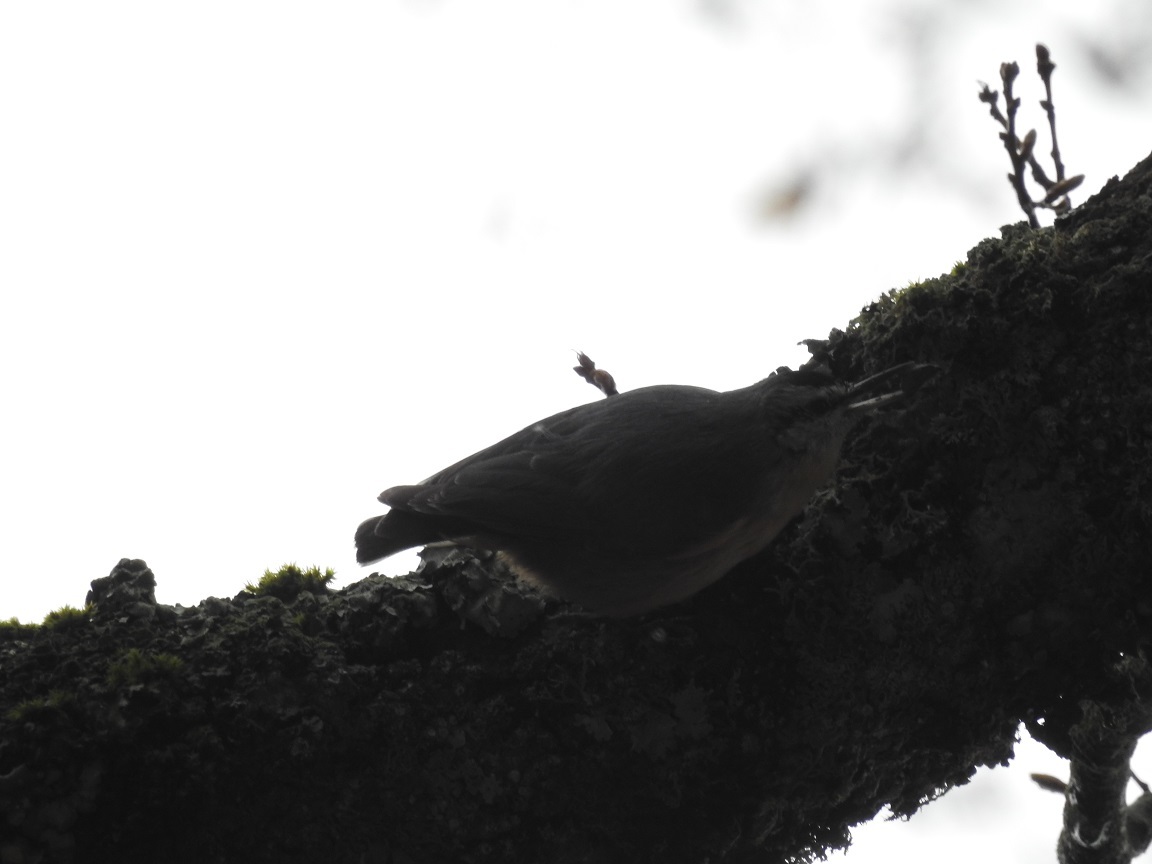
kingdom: Animalia
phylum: Chordata
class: Aves
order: Passeriformes
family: Sittidae
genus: Sitta
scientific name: Sitta ledanti
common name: Algerian nuthatch
